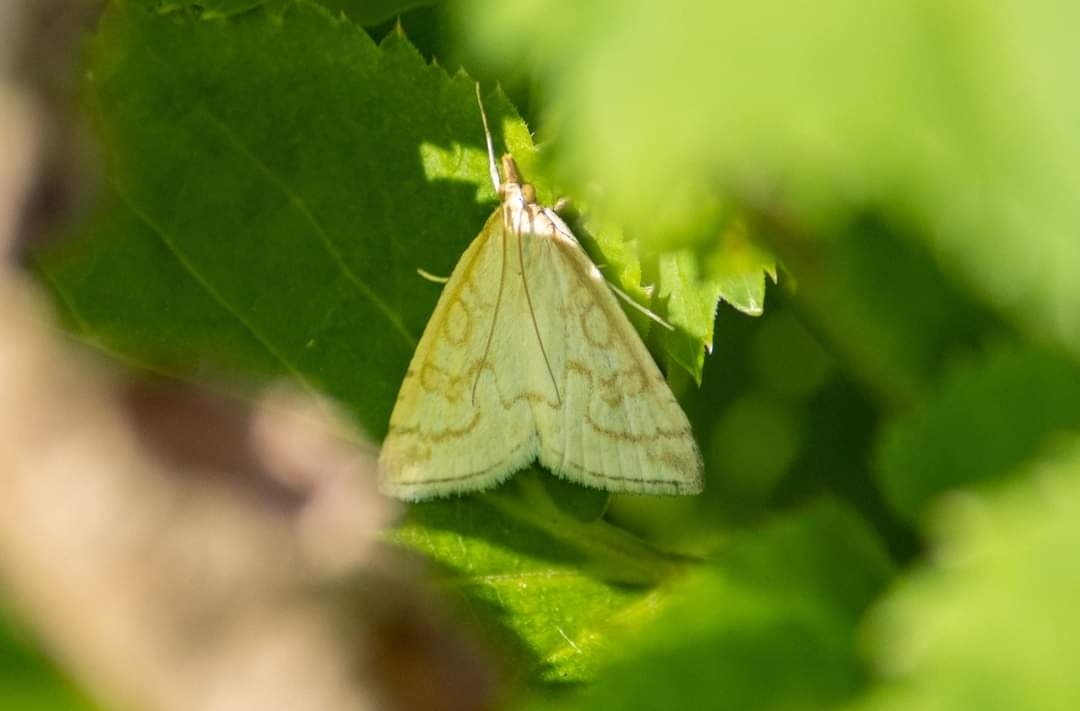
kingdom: Animalia
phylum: Arthropoda
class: Insecta
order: Lepidoptera
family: Crambidae
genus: Udea
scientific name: Udea lutealis
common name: Pale straw pearl
